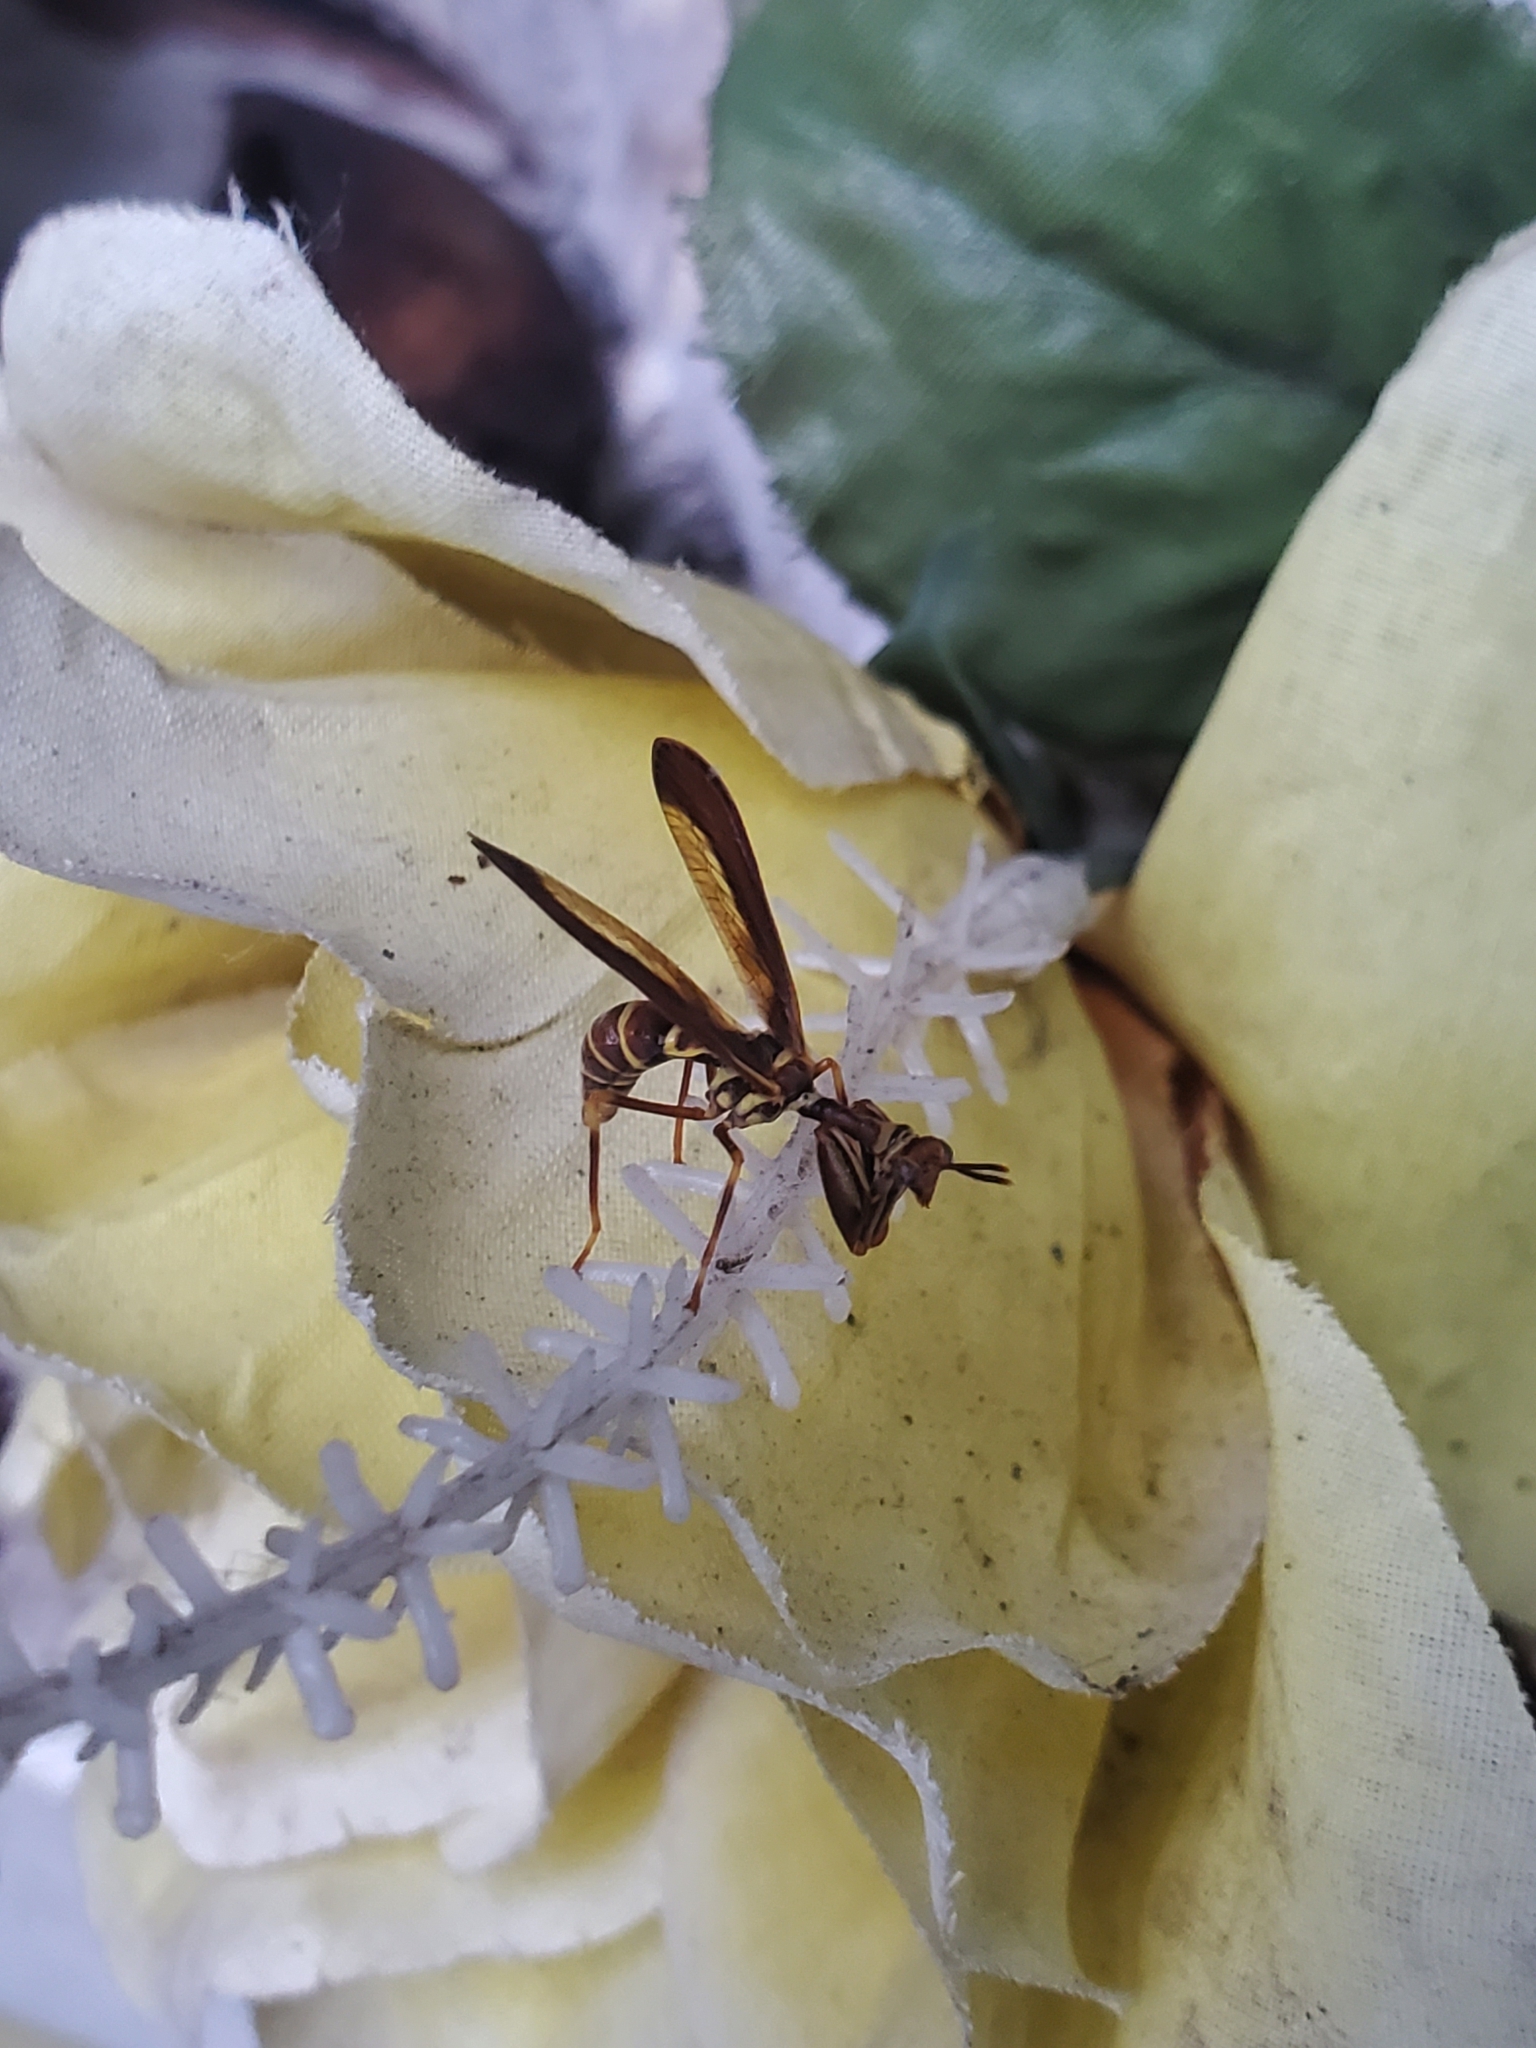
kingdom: Animalia
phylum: Arthropoda
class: Insecta
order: Neuroptera
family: Mantispidae
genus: Climaciella
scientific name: Climaciella brunnea
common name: Brown wasp mantidfly
